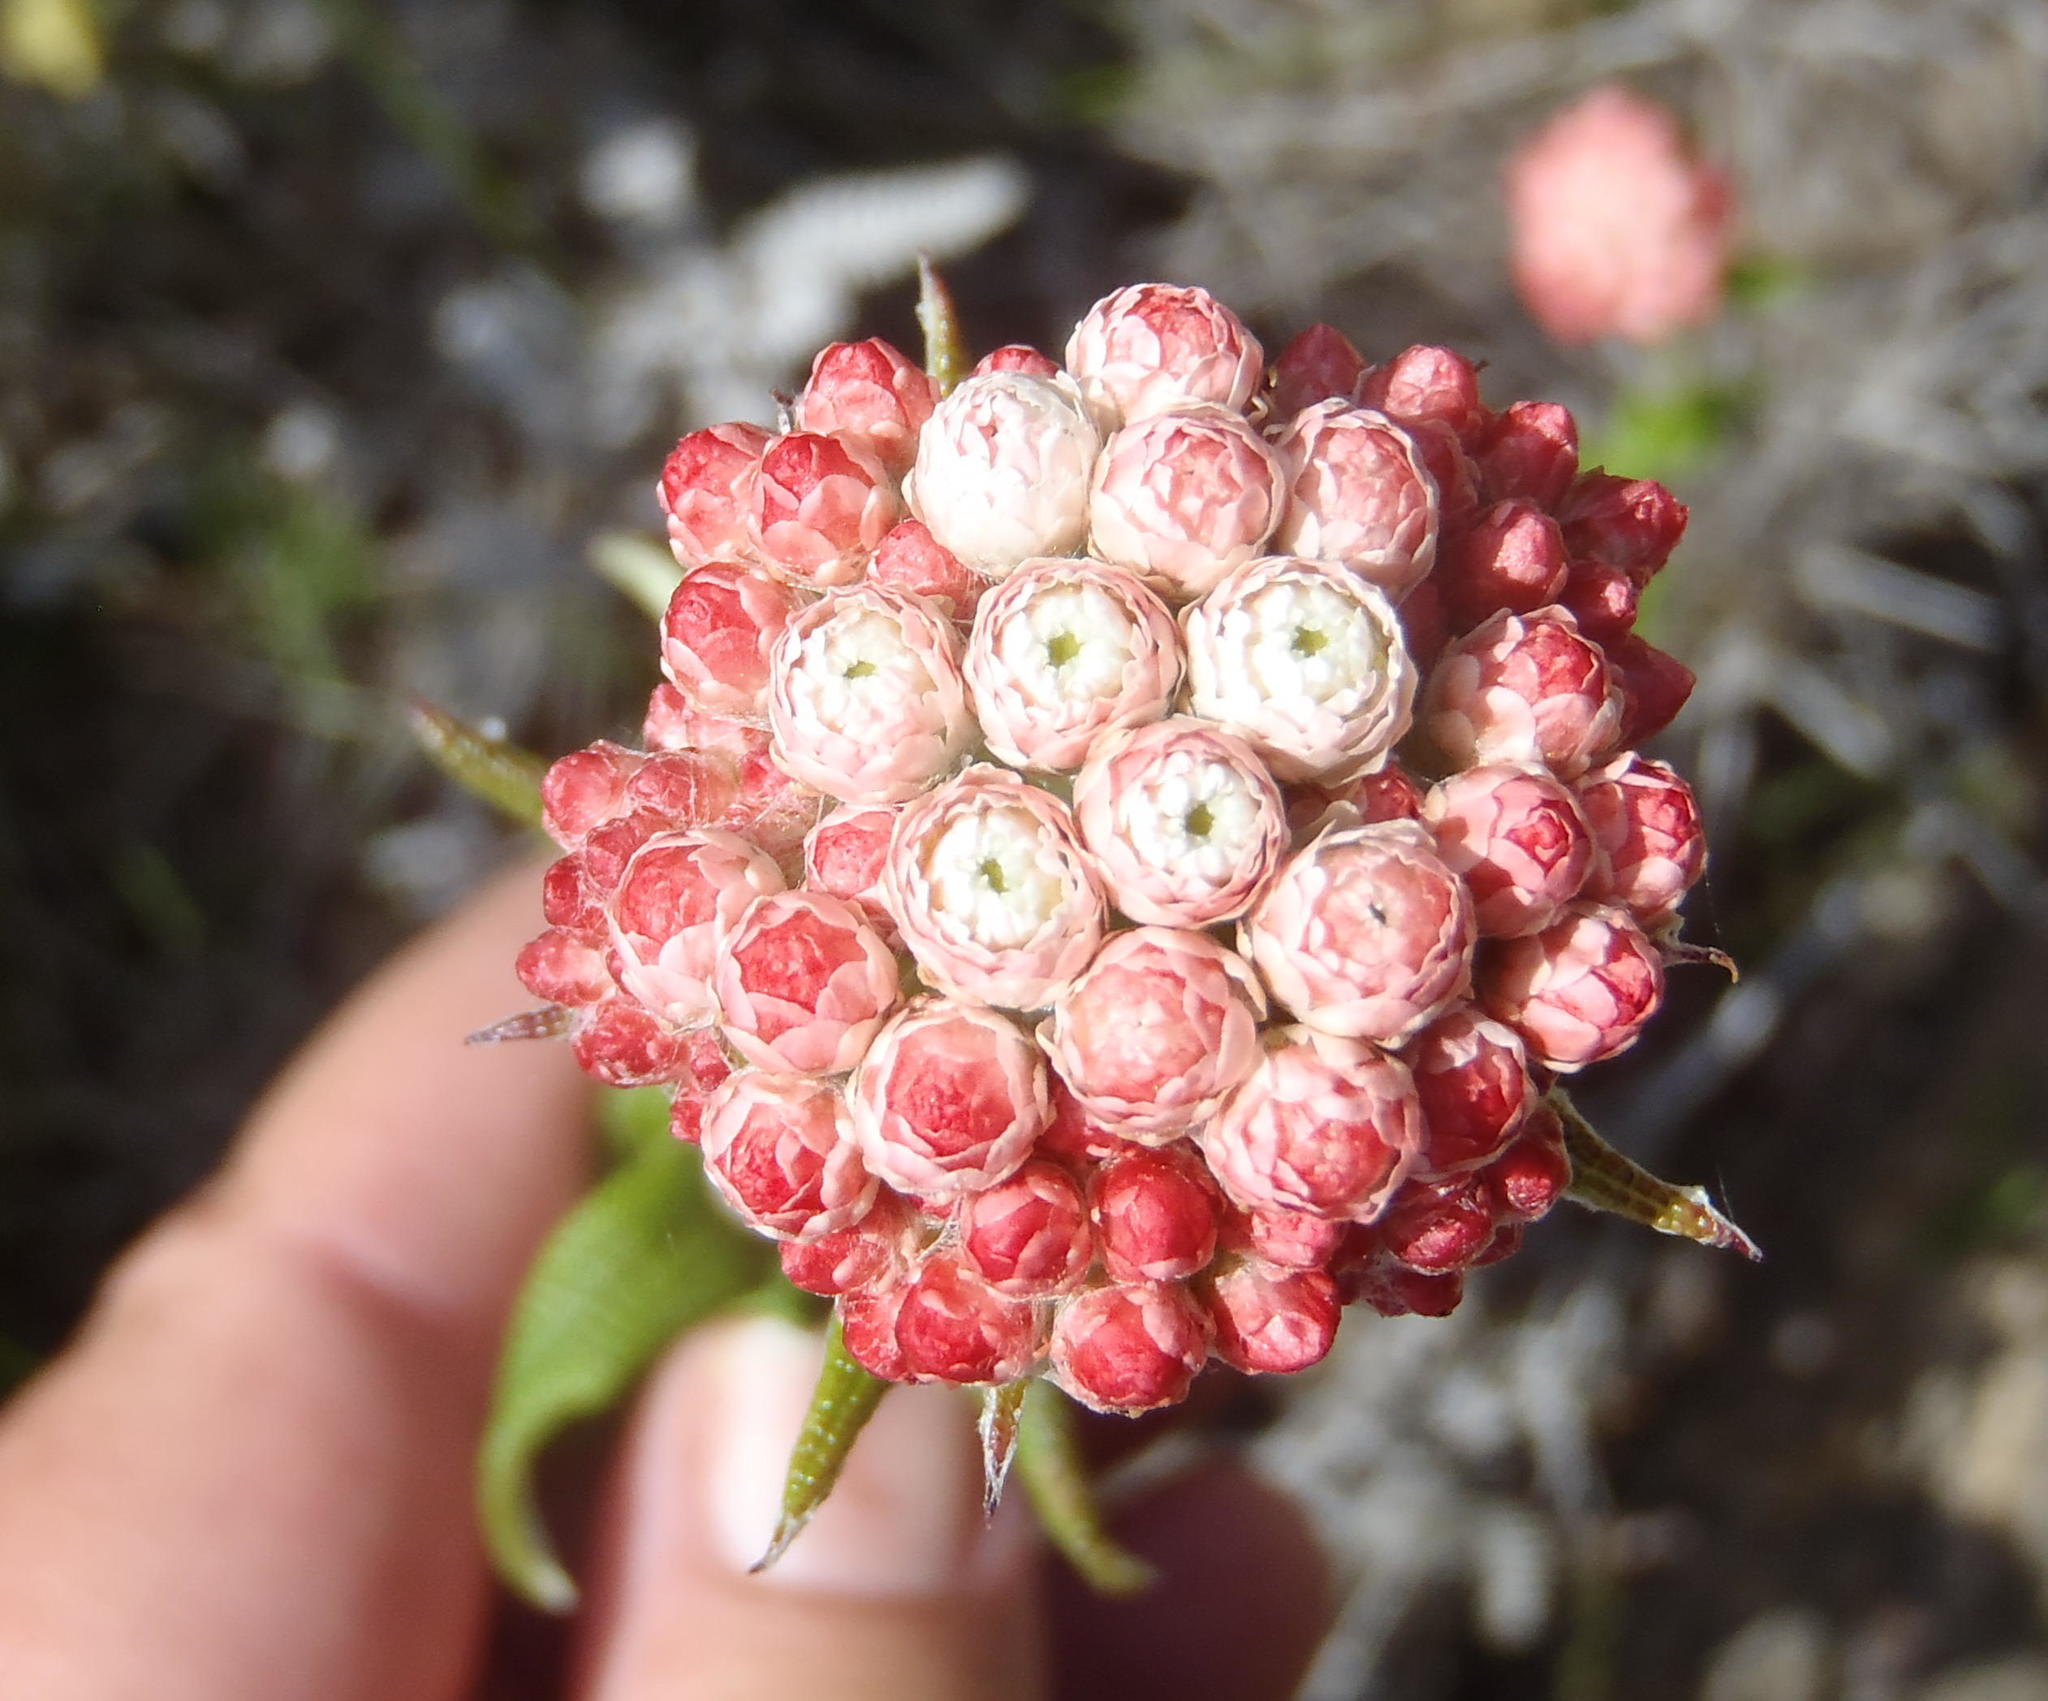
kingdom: Plantae
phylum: Tracheophyta
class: Magnoliopsida
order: Asterales
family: Asteraceae
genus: Helichrysum
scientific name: Helichrysum felinum
